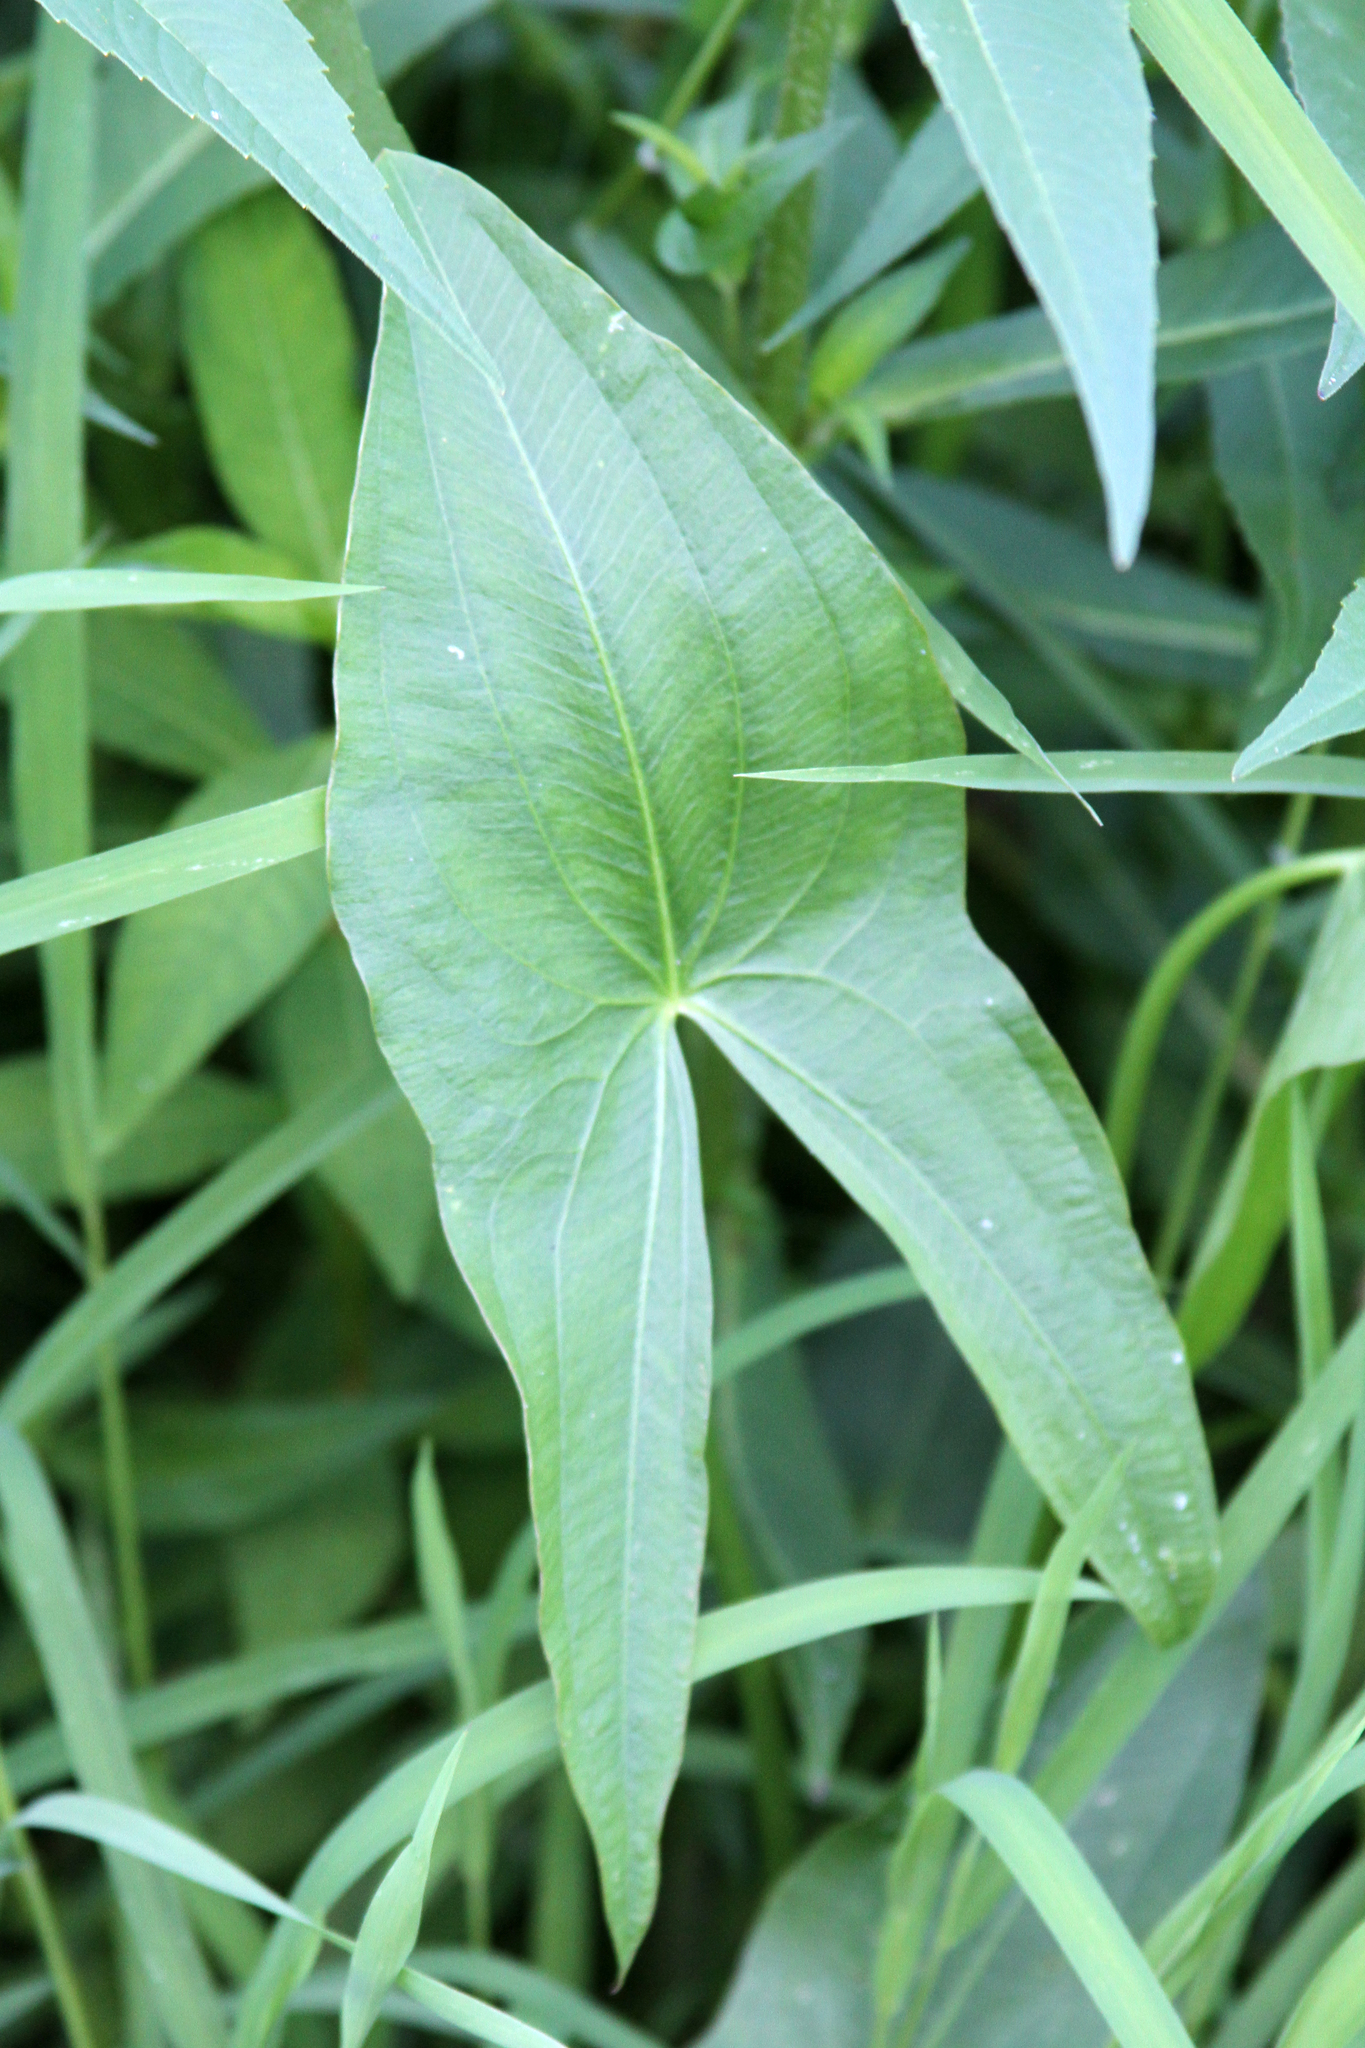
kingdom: Plantae
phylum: Tracheophyta
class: Liliopsida
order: Alismatales
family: Alismataceae
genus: Sagittaria
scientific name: Sagittaria latifolia
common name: Duck-potato
